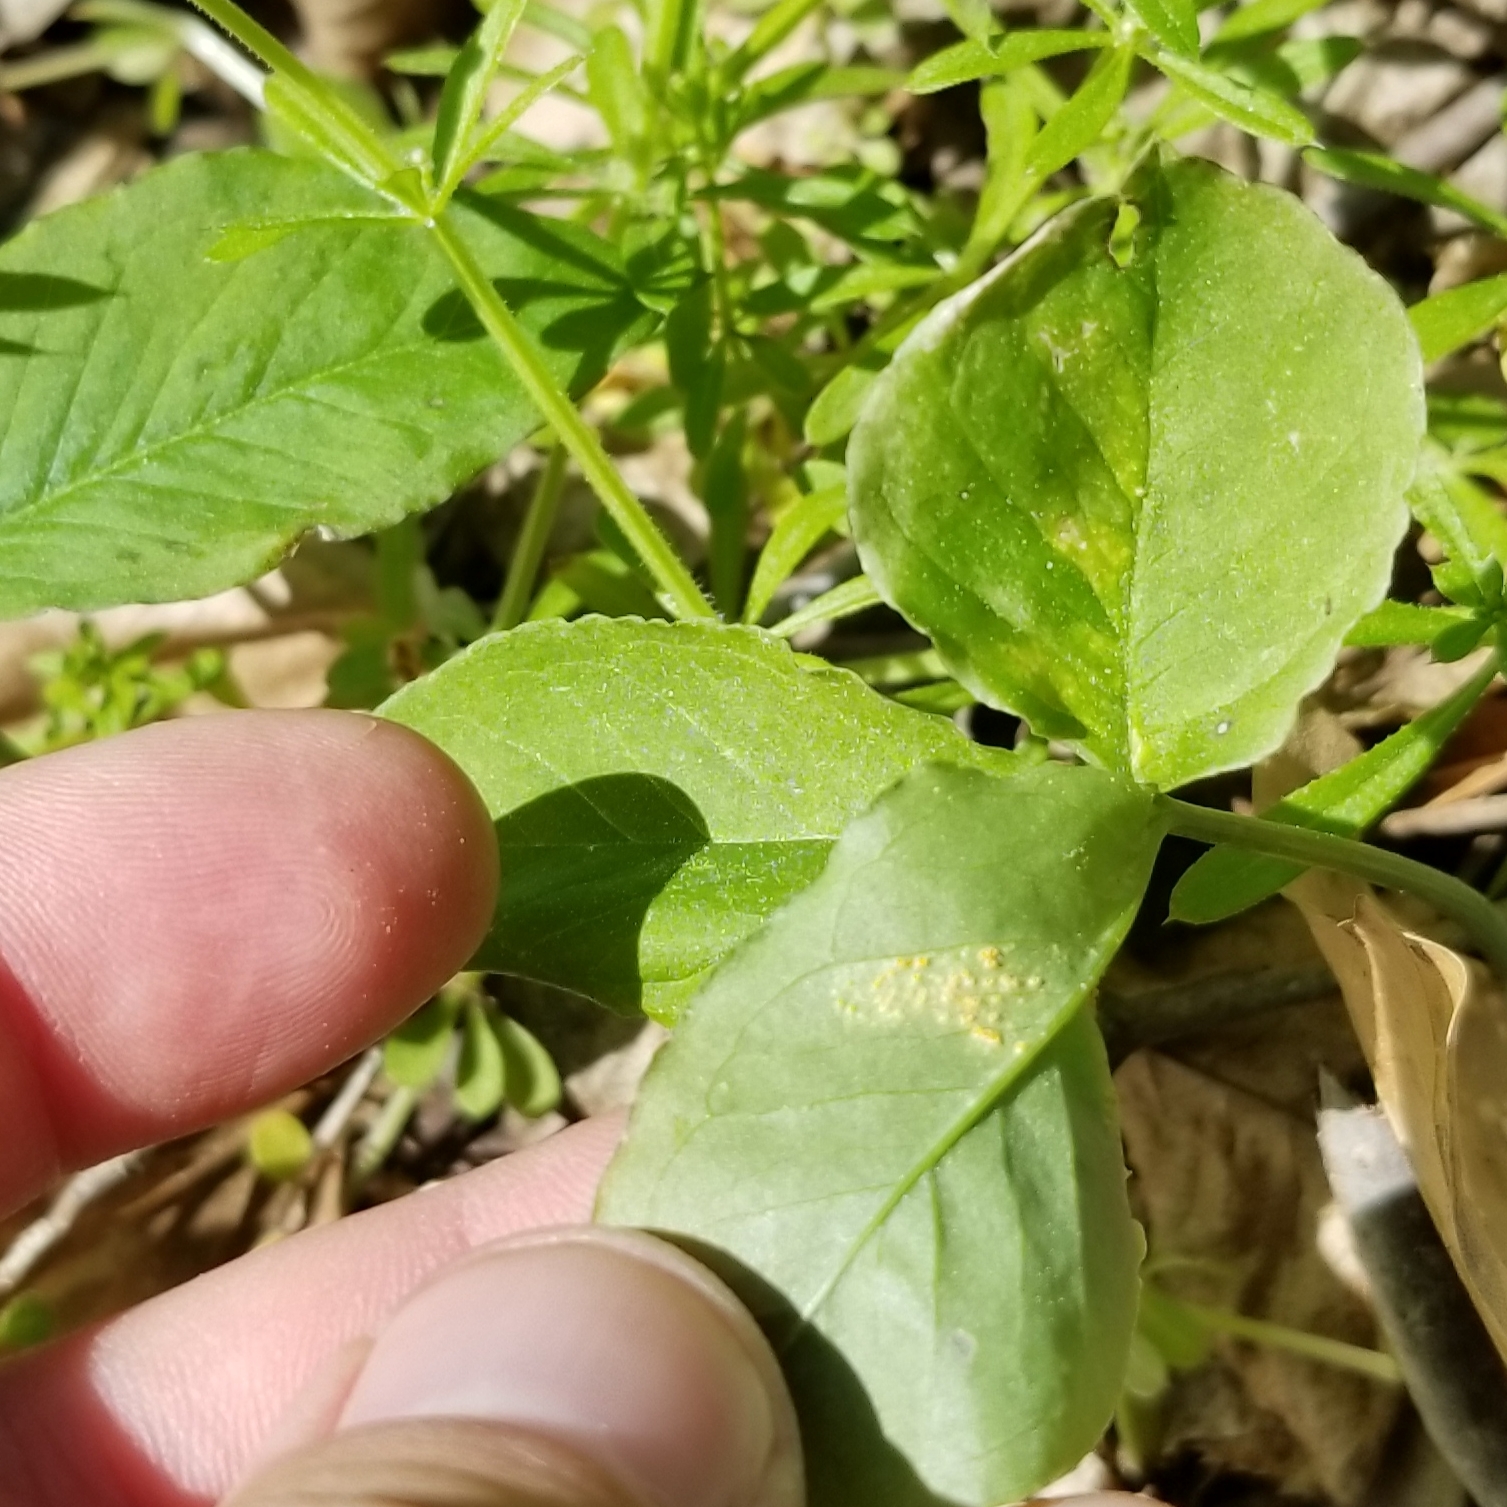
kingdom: Fungi
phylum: Basidiomycota
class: Pucciniomycetes
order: Pucciniales
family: Pucciniaceae
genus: Uromyces
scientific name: Uromyces ari-triphylli
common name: Jack-in-the-pulpit rust
